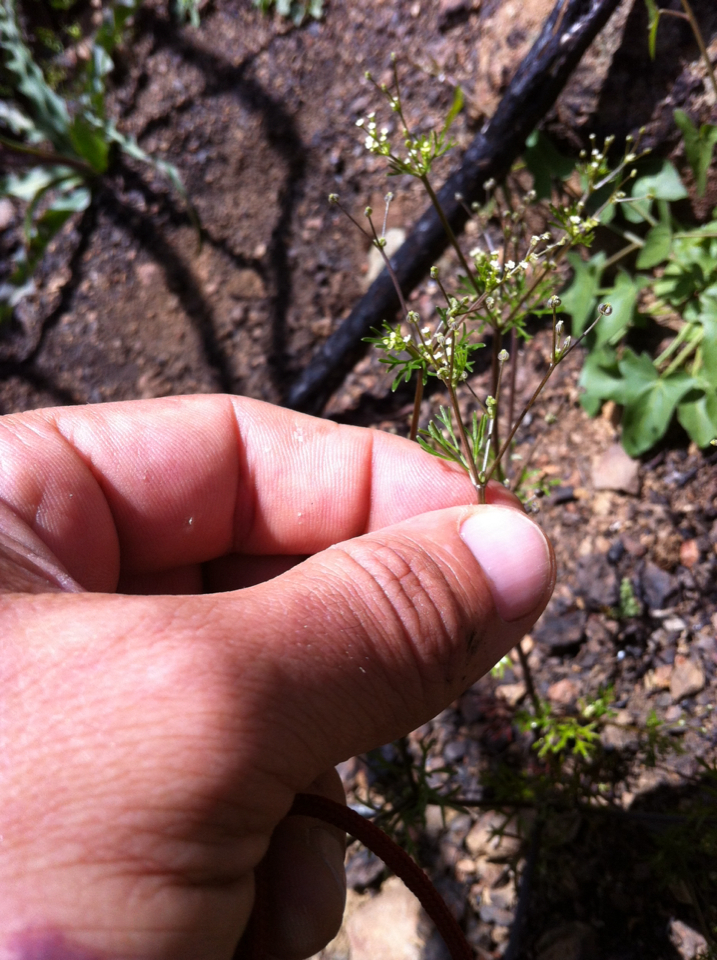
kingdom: Plantae
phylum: Tracheophyta
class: Magnoliopsida
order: Apiales
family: Apiaceae
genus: Apiastrum
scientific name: Apiastrum angustifolium
